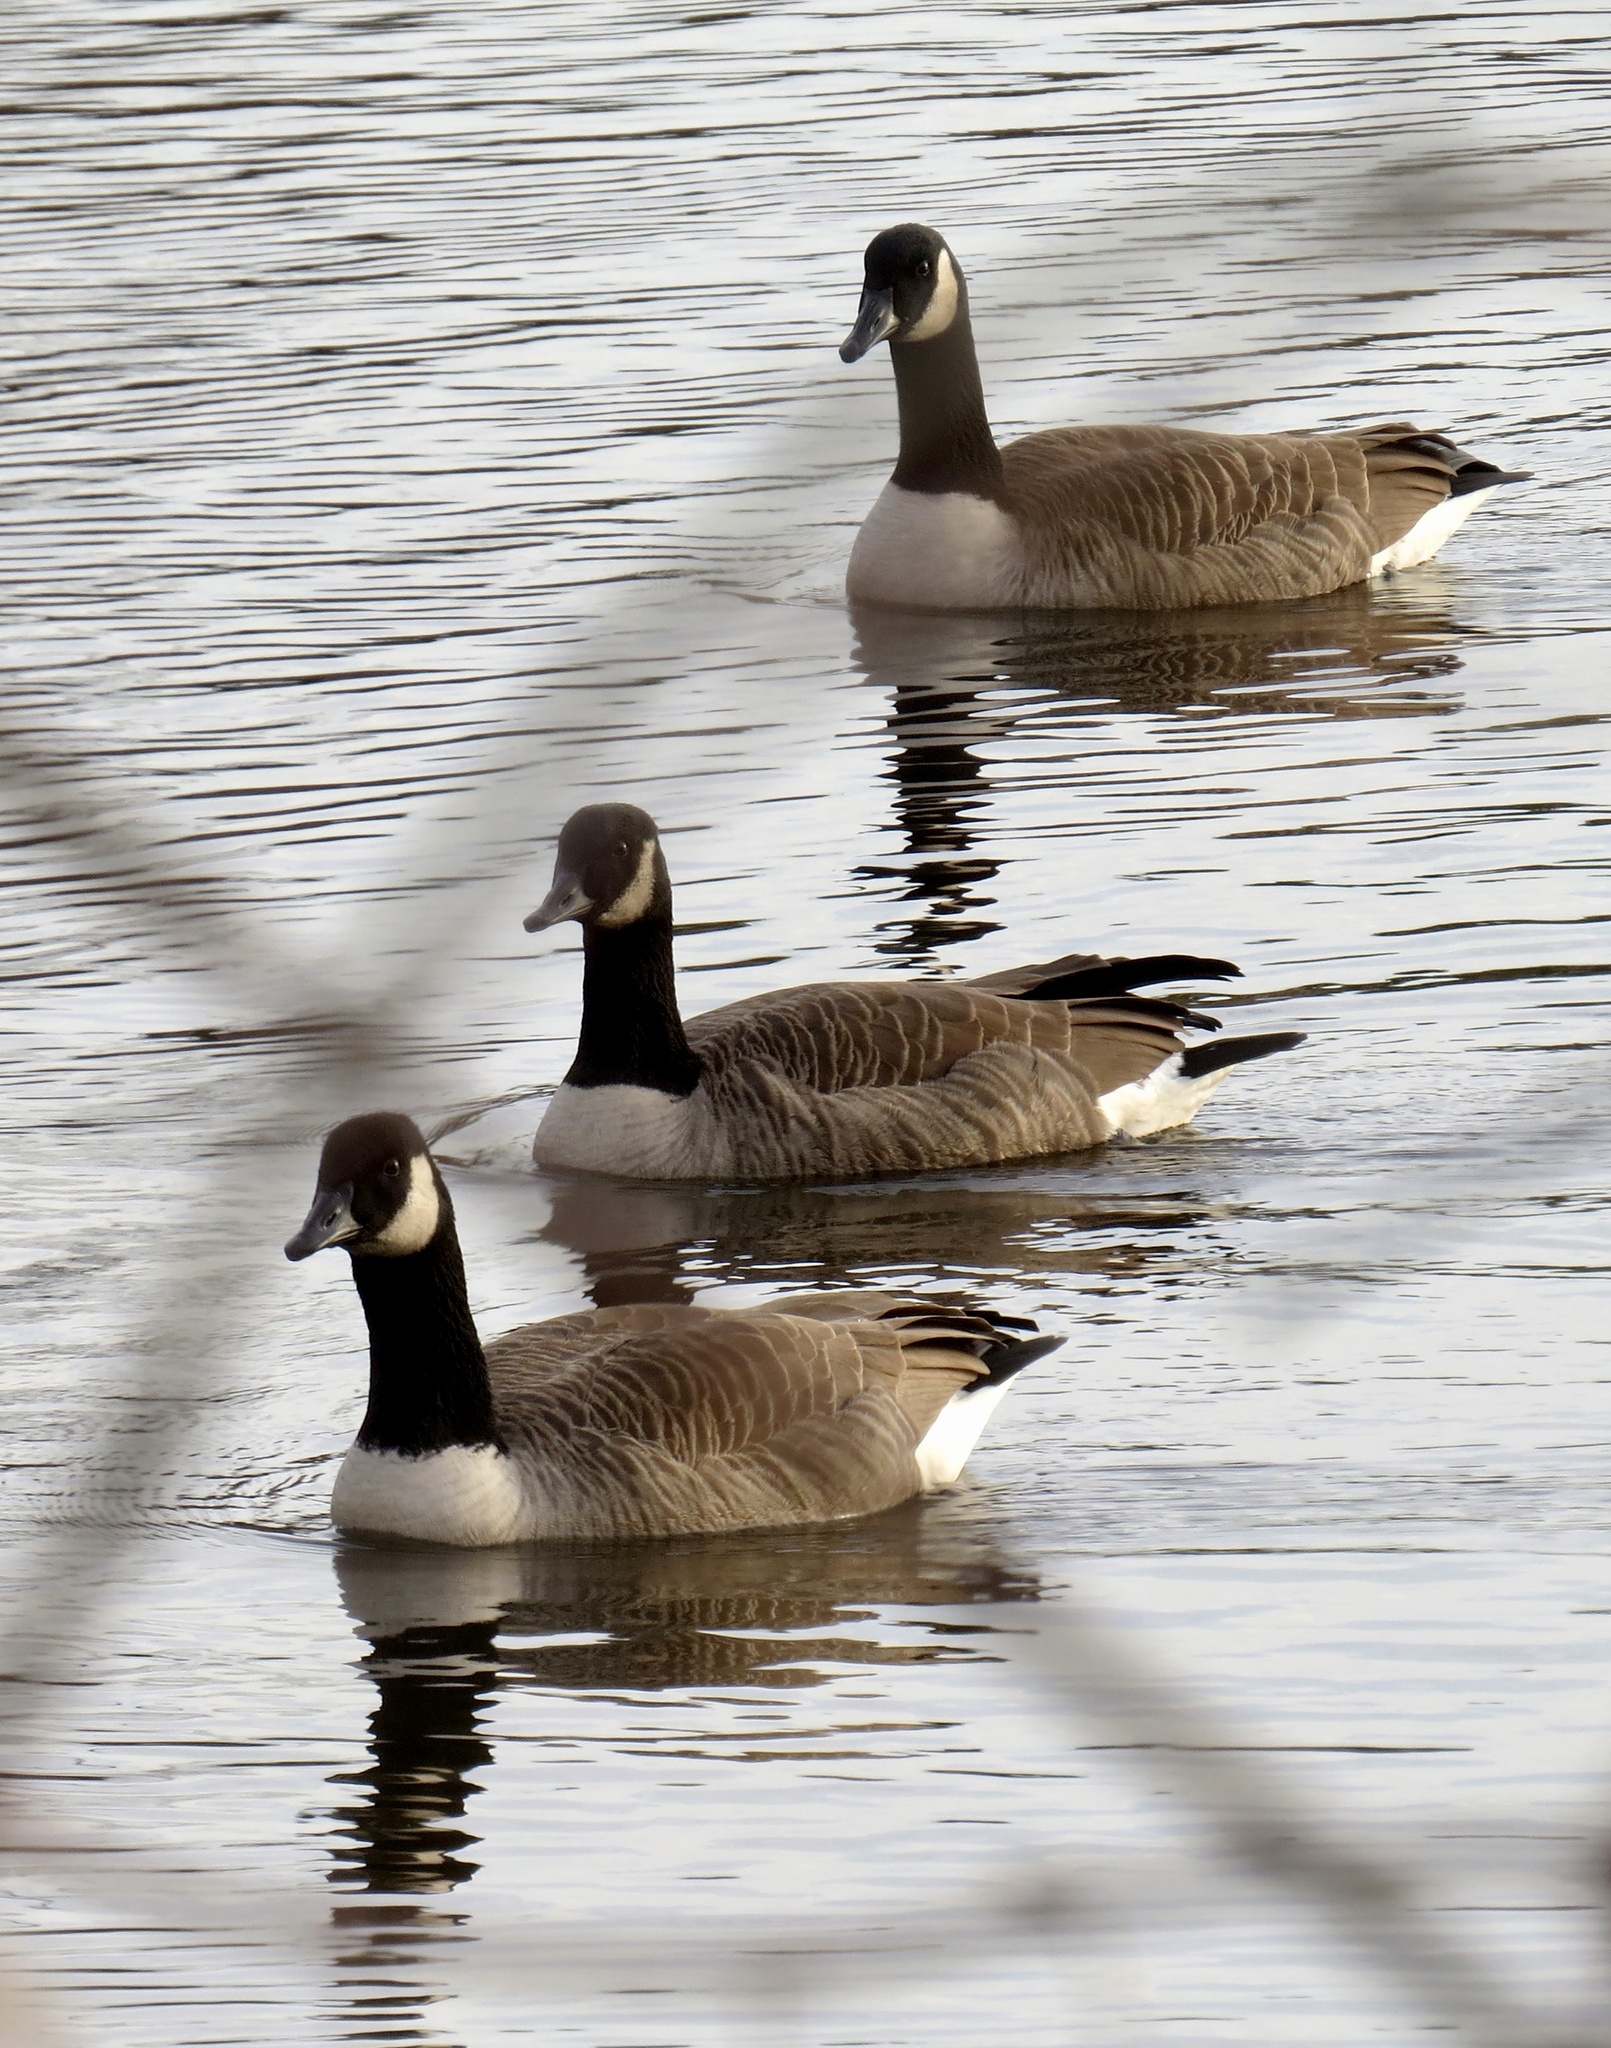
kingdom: Animalia
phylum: Chordata
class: Aves
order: Anseriformes
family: Anatidae
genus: Branta
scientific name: Branta canadensis
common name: Canada goose
